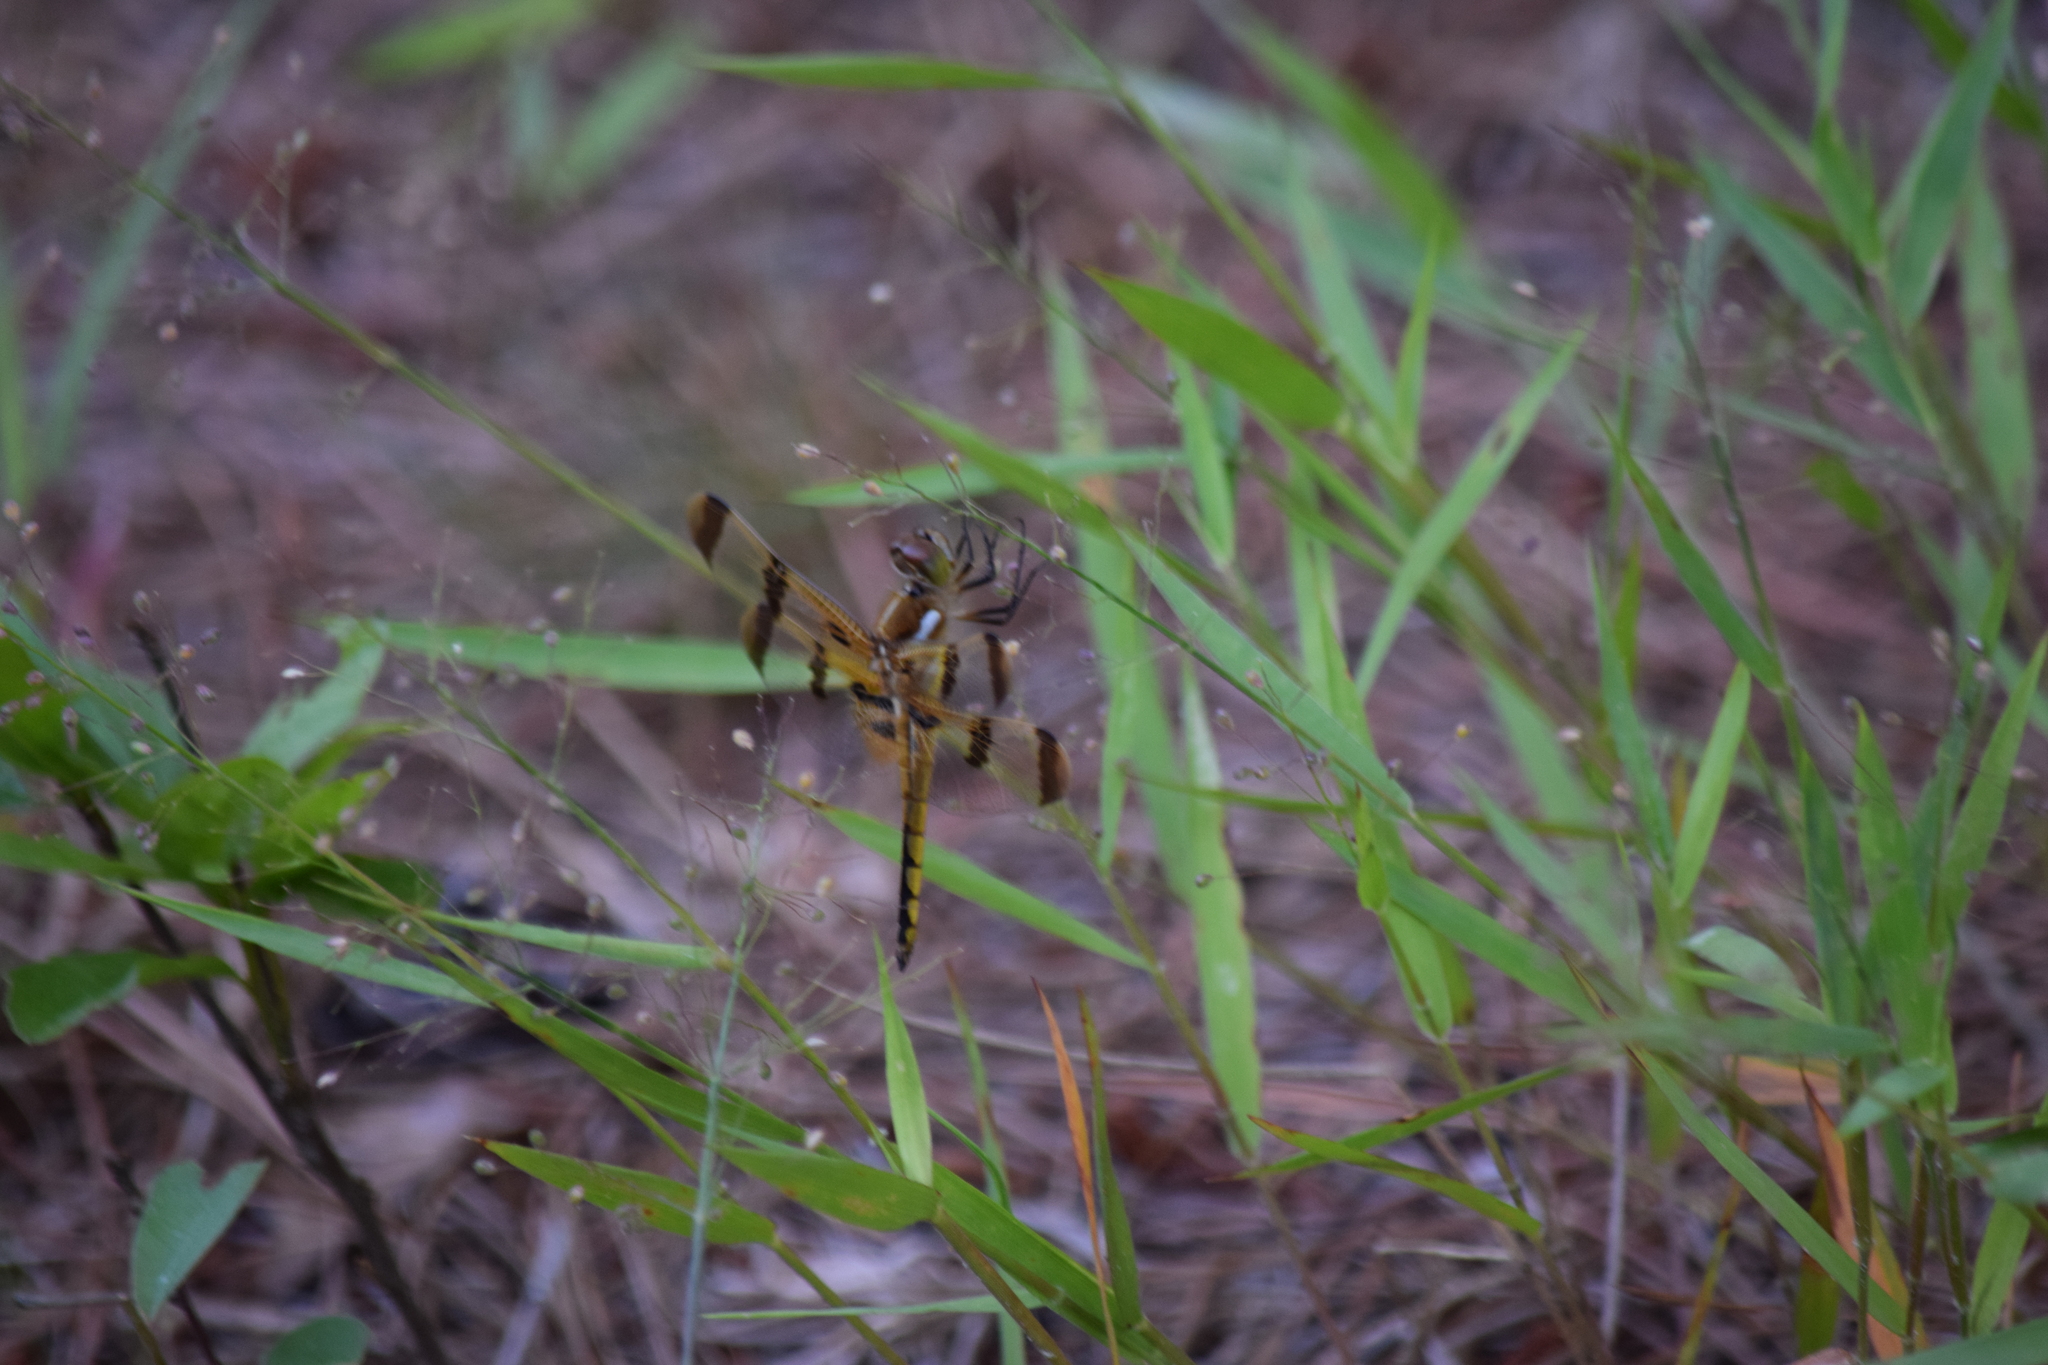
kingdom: Animalia
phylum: Arthropoda
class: Insecta
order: Odonata
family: Libellulidae
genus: Libellula
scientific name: Libellula semifasciata
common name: Painted skimmer
